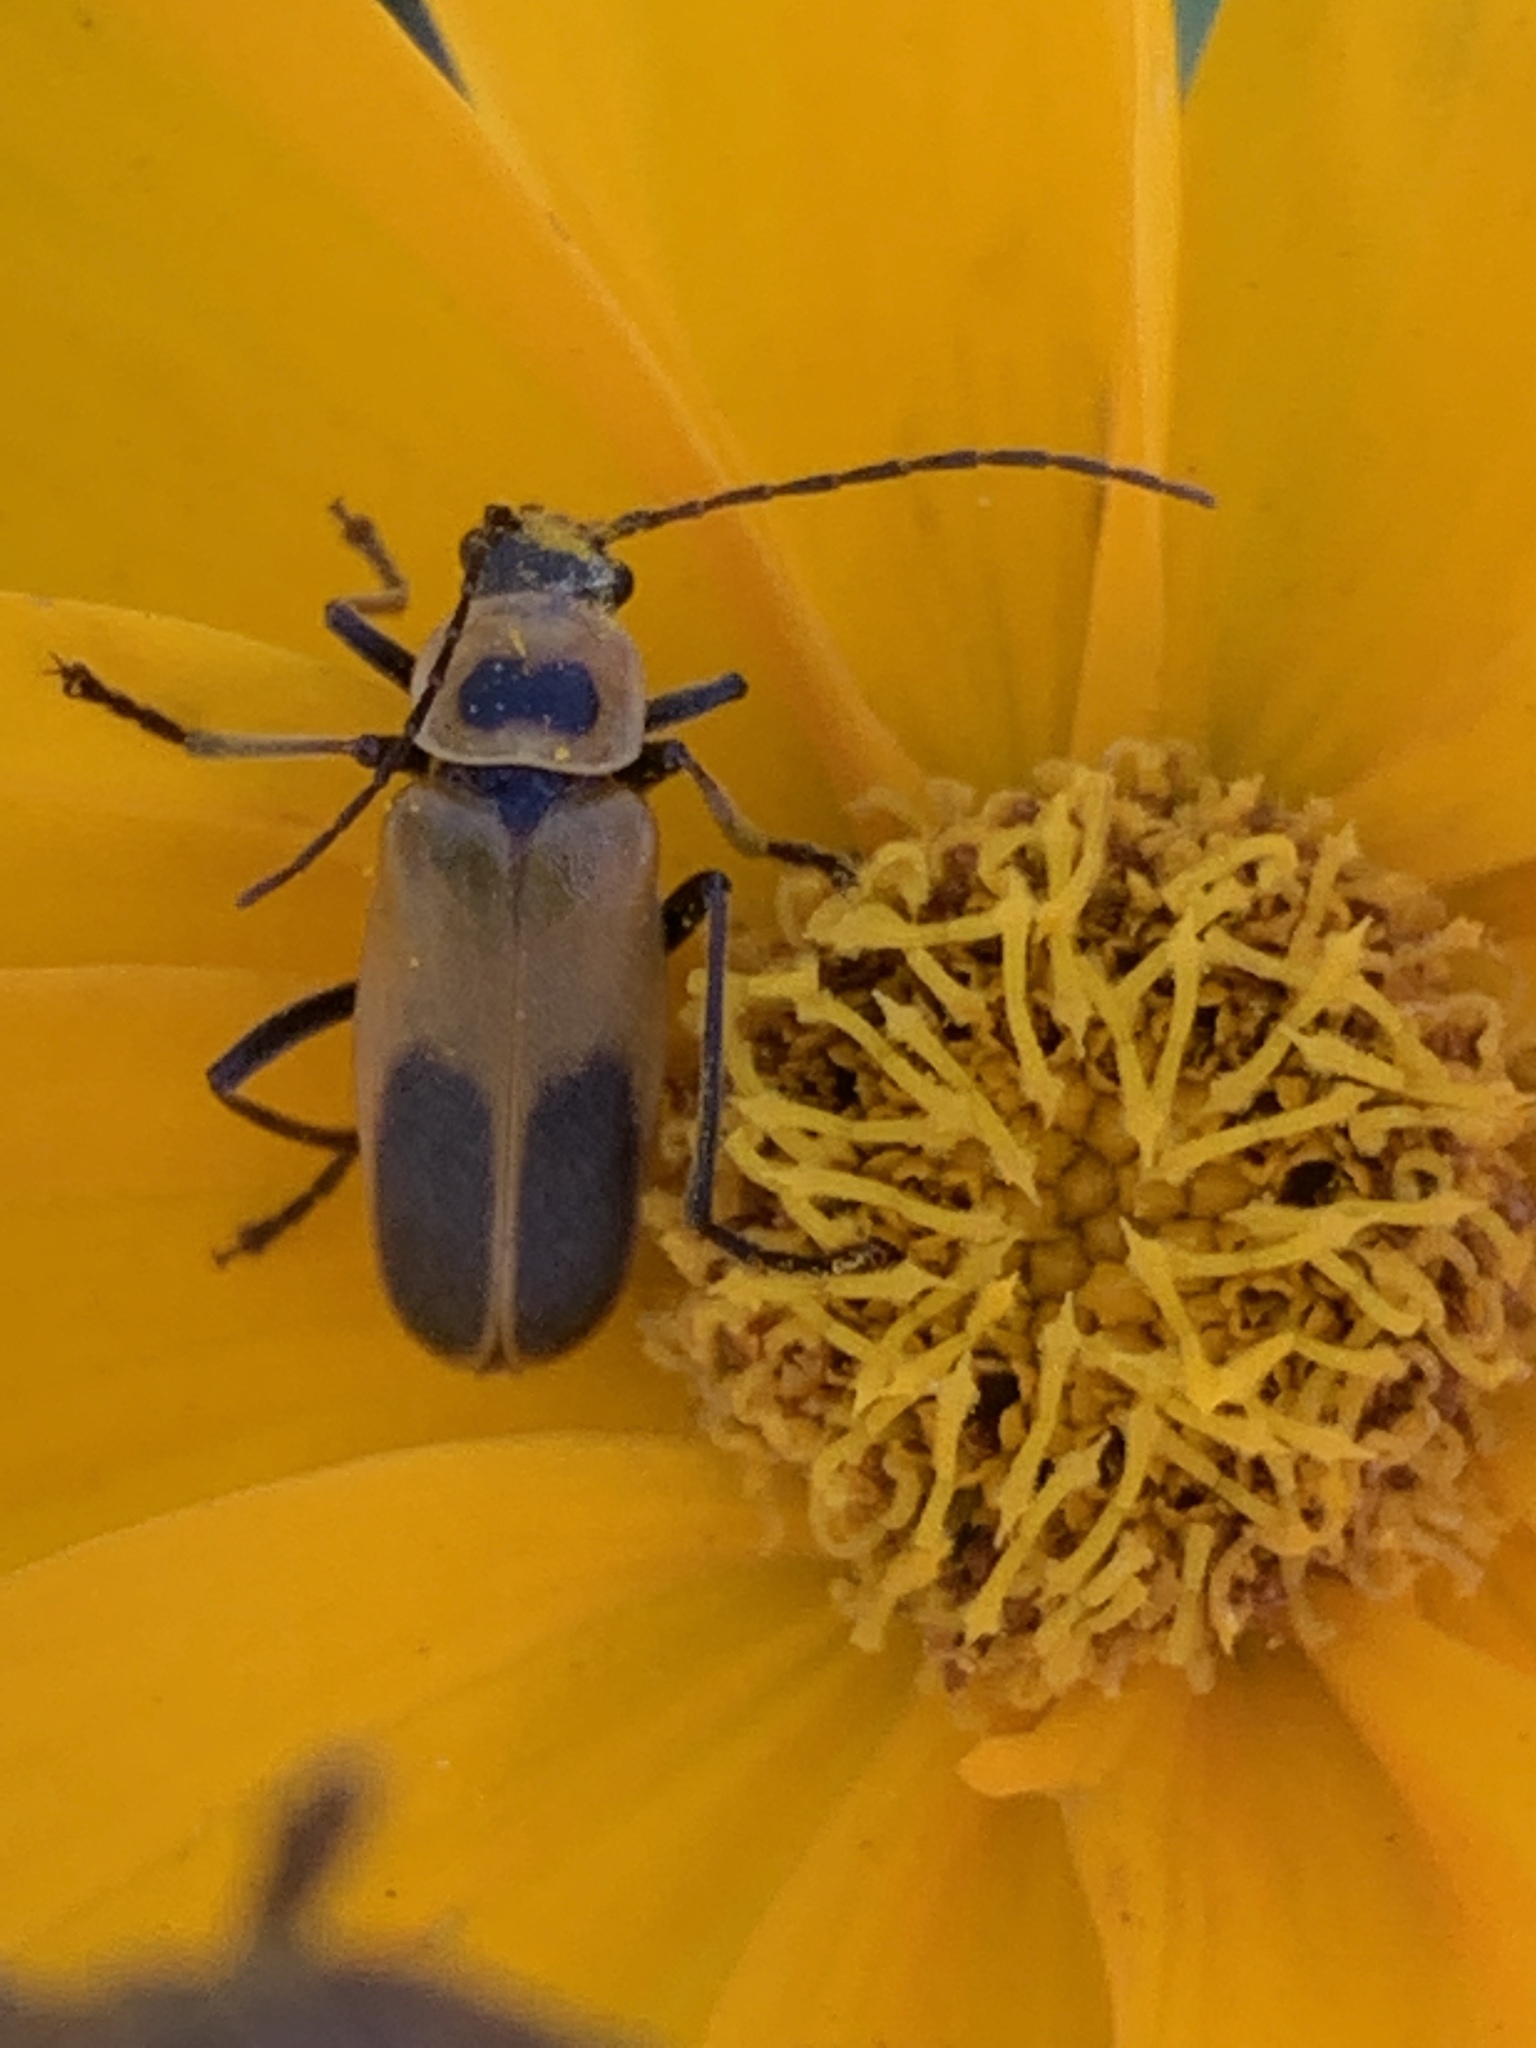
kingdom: Animalia
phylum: Arthropoda
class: Insecta
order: Coleoptera
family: Cantharidae
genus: Chauliognathus
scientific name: Chauliognathus pensylvanicus
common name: Goldenrod soldier beetle
